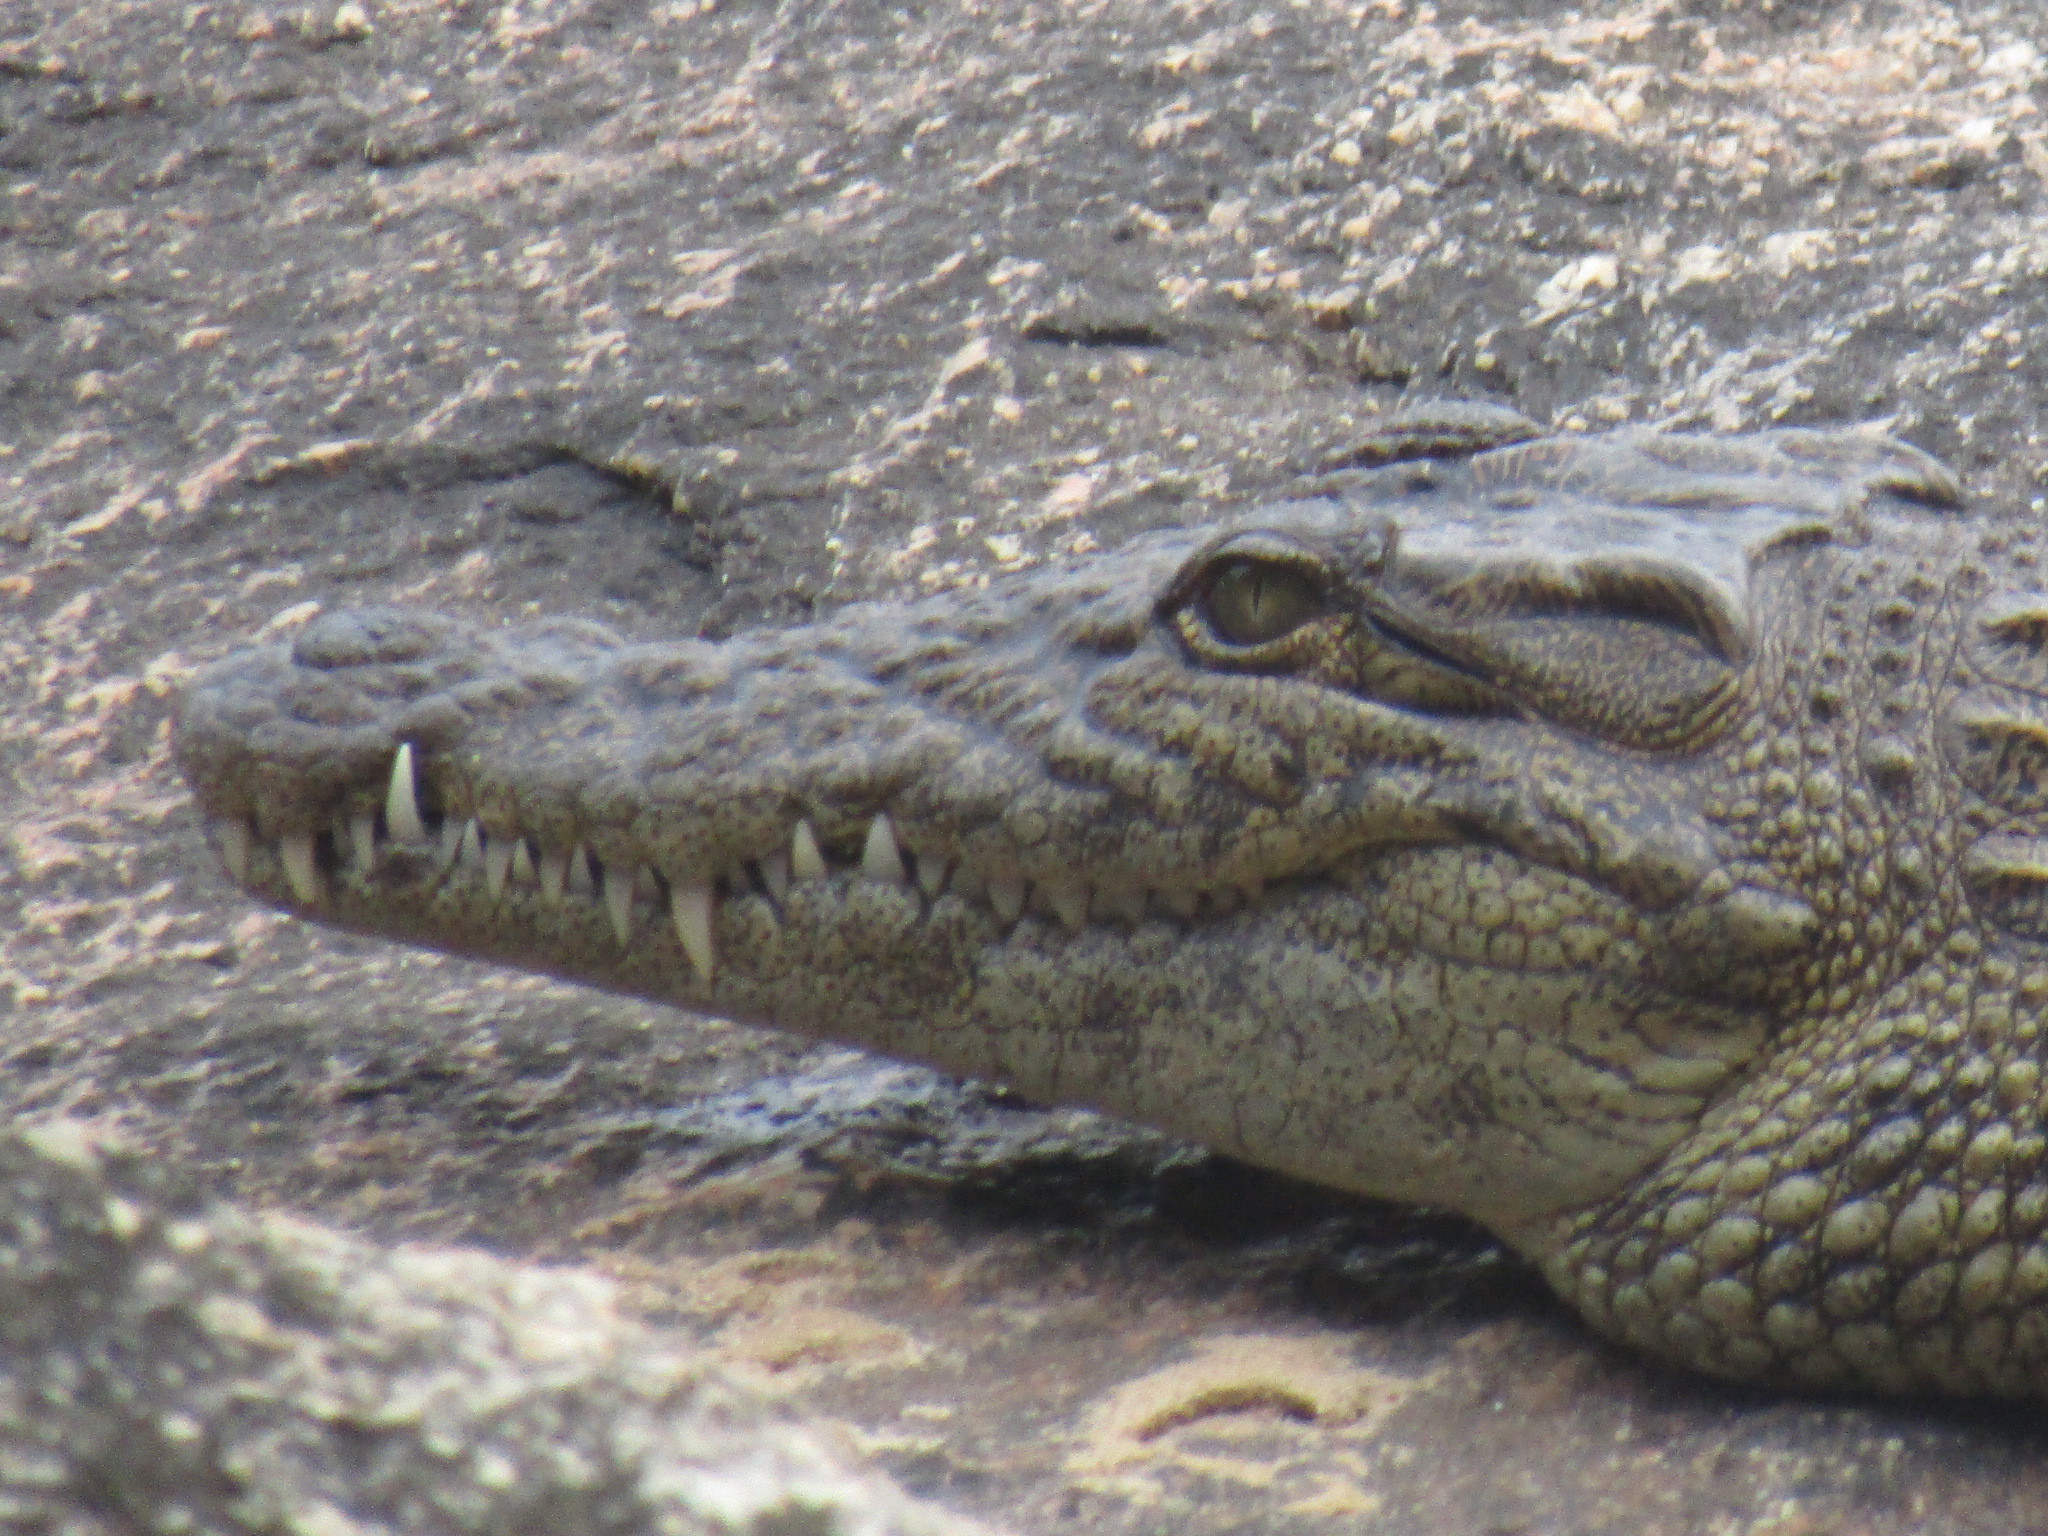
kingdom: Animalia
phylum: Chordata
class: Crocodylia
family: Crocodylidae
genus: Crocodylus
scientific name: Crocodylus niloticus
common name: Nile crocodile
